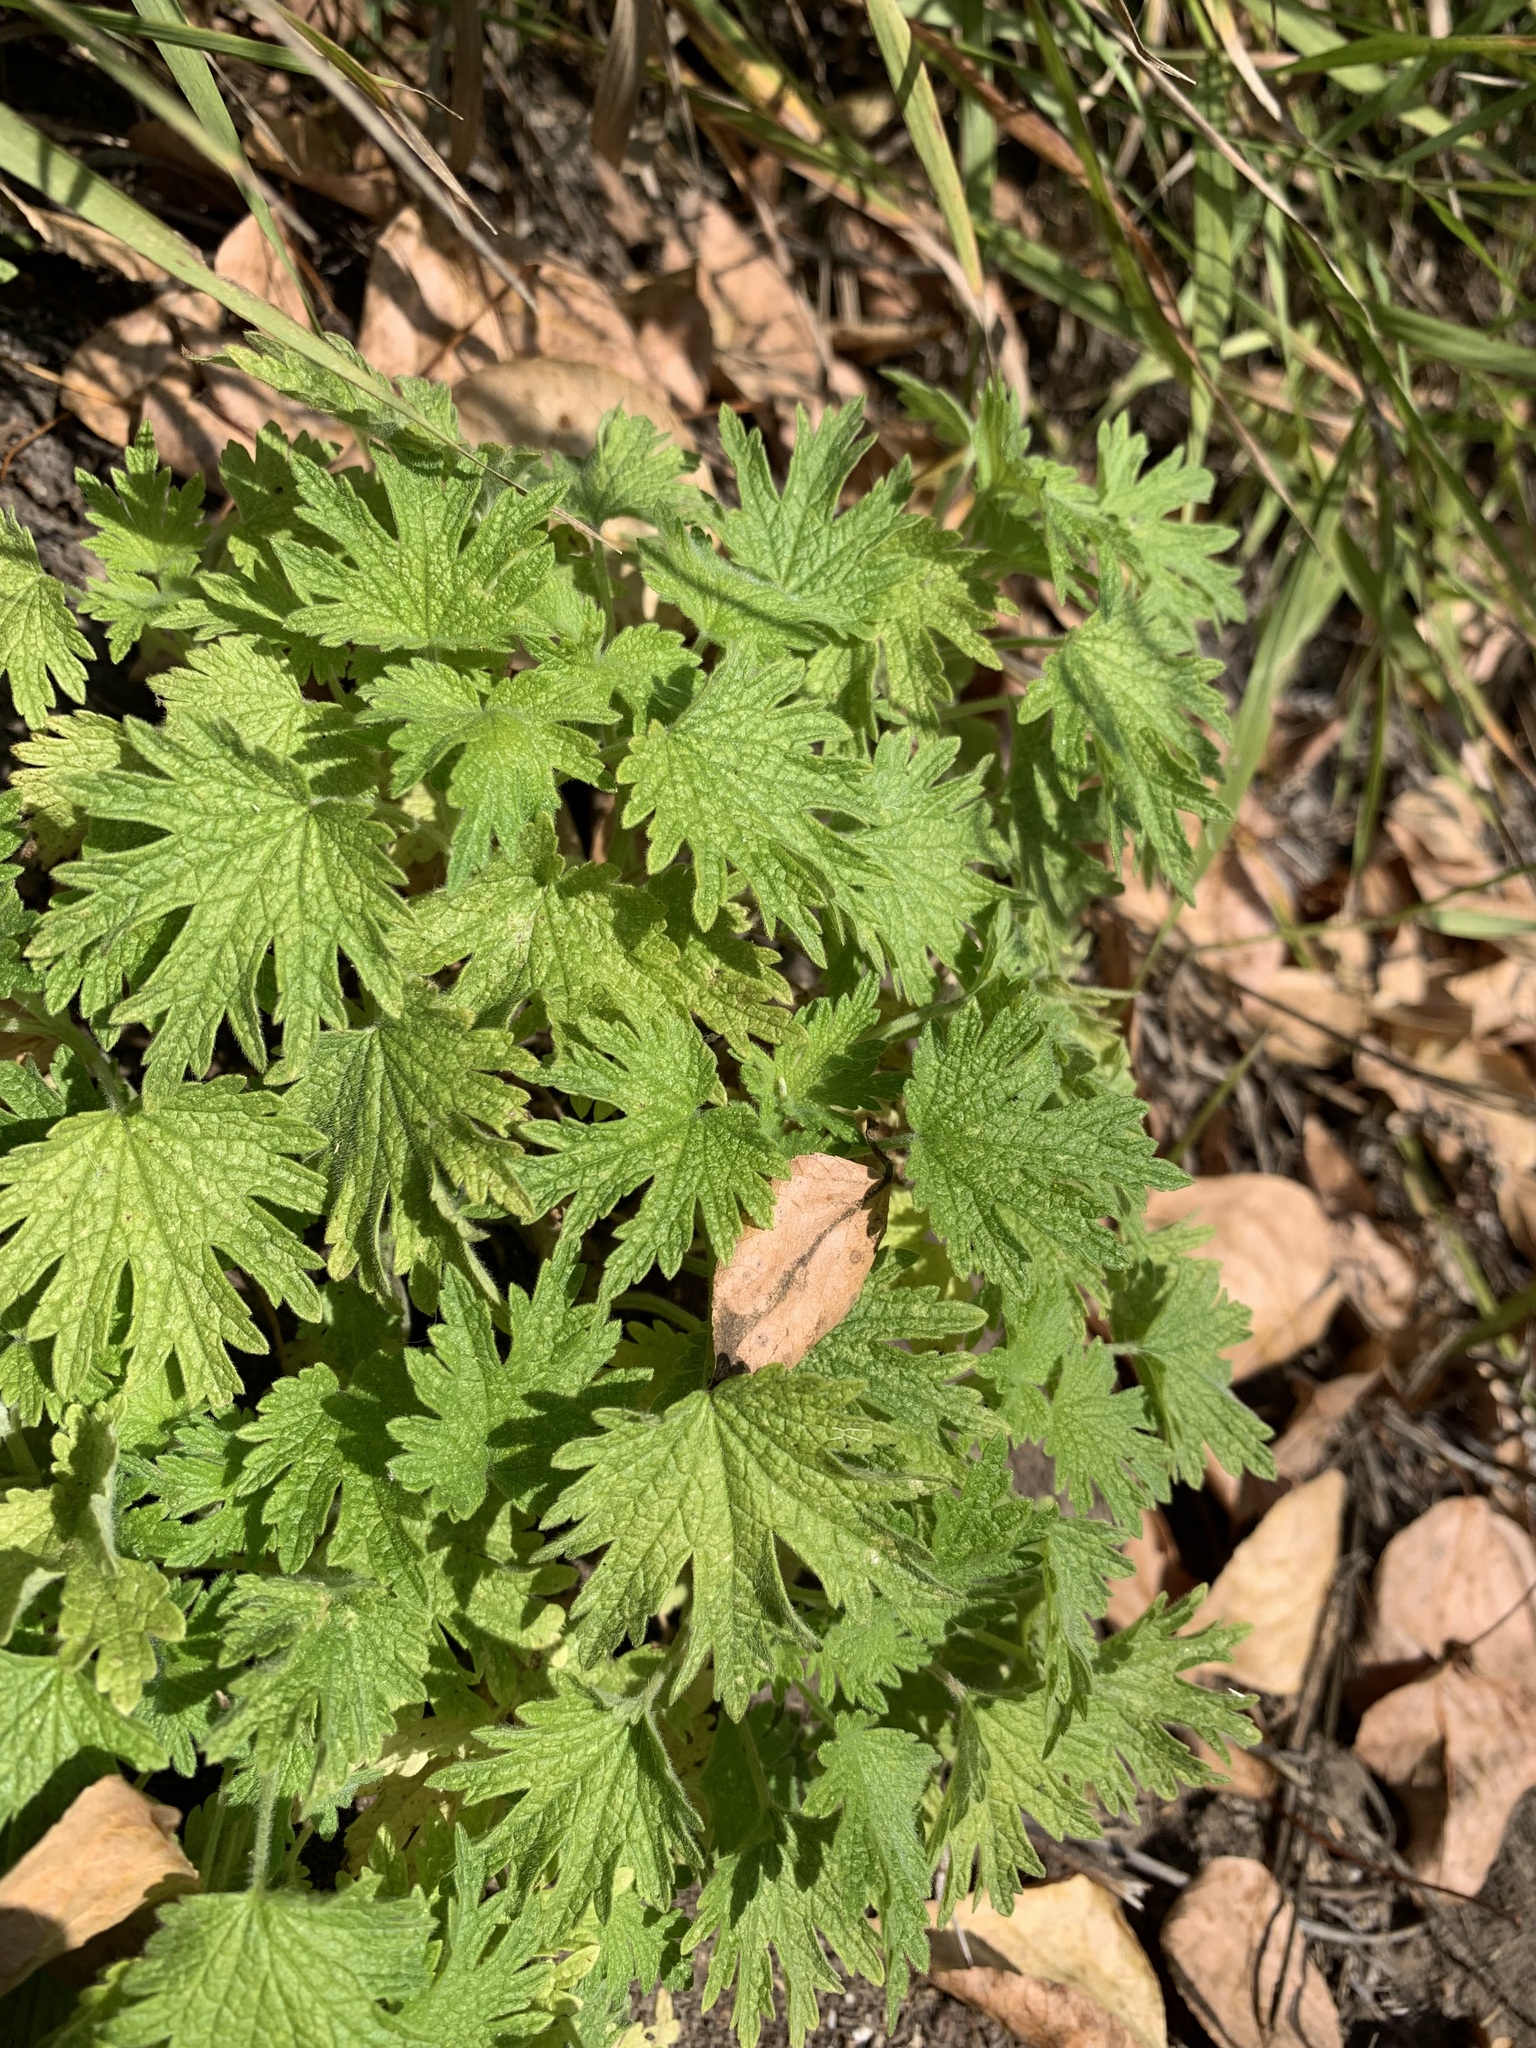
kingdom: Plantae
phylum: Tracheophyta
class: Magnoliopsida
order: Lamiales
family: Lamiaceae
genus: Leonurus
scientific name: Leonurus quinquelobatus
